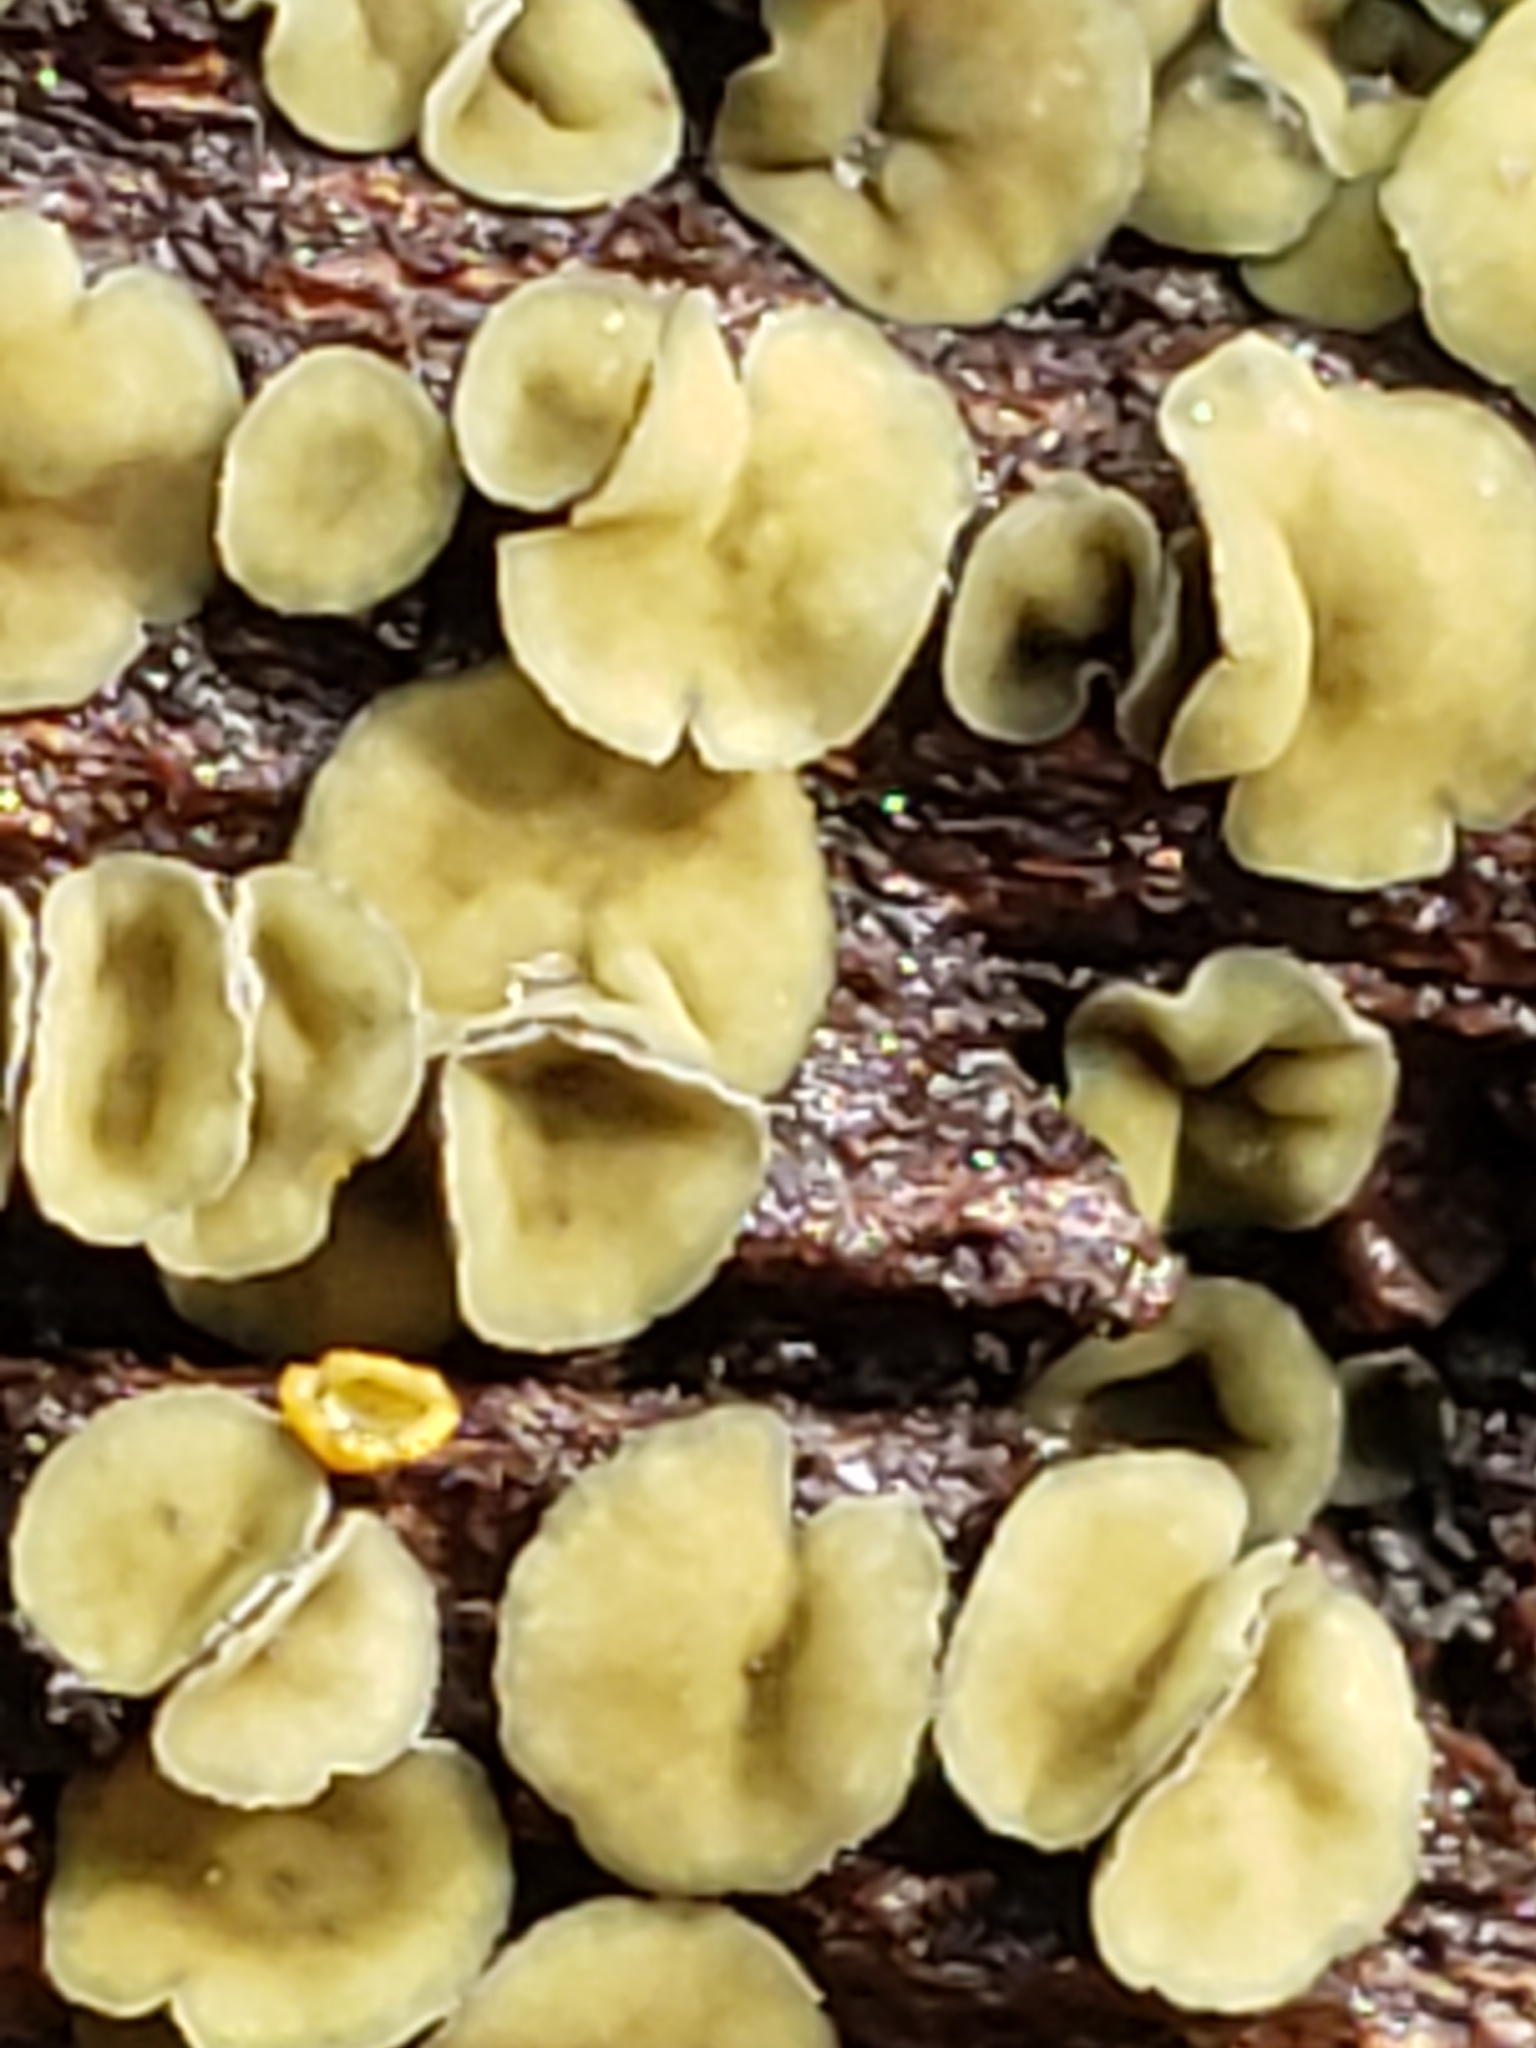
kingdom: Fungi
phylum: Ascomycota
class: Leotiomycetes
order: Helotiales
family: Chlorospleniaceae
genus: Chlorosplenium
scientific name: Chlorosplenium chlora
